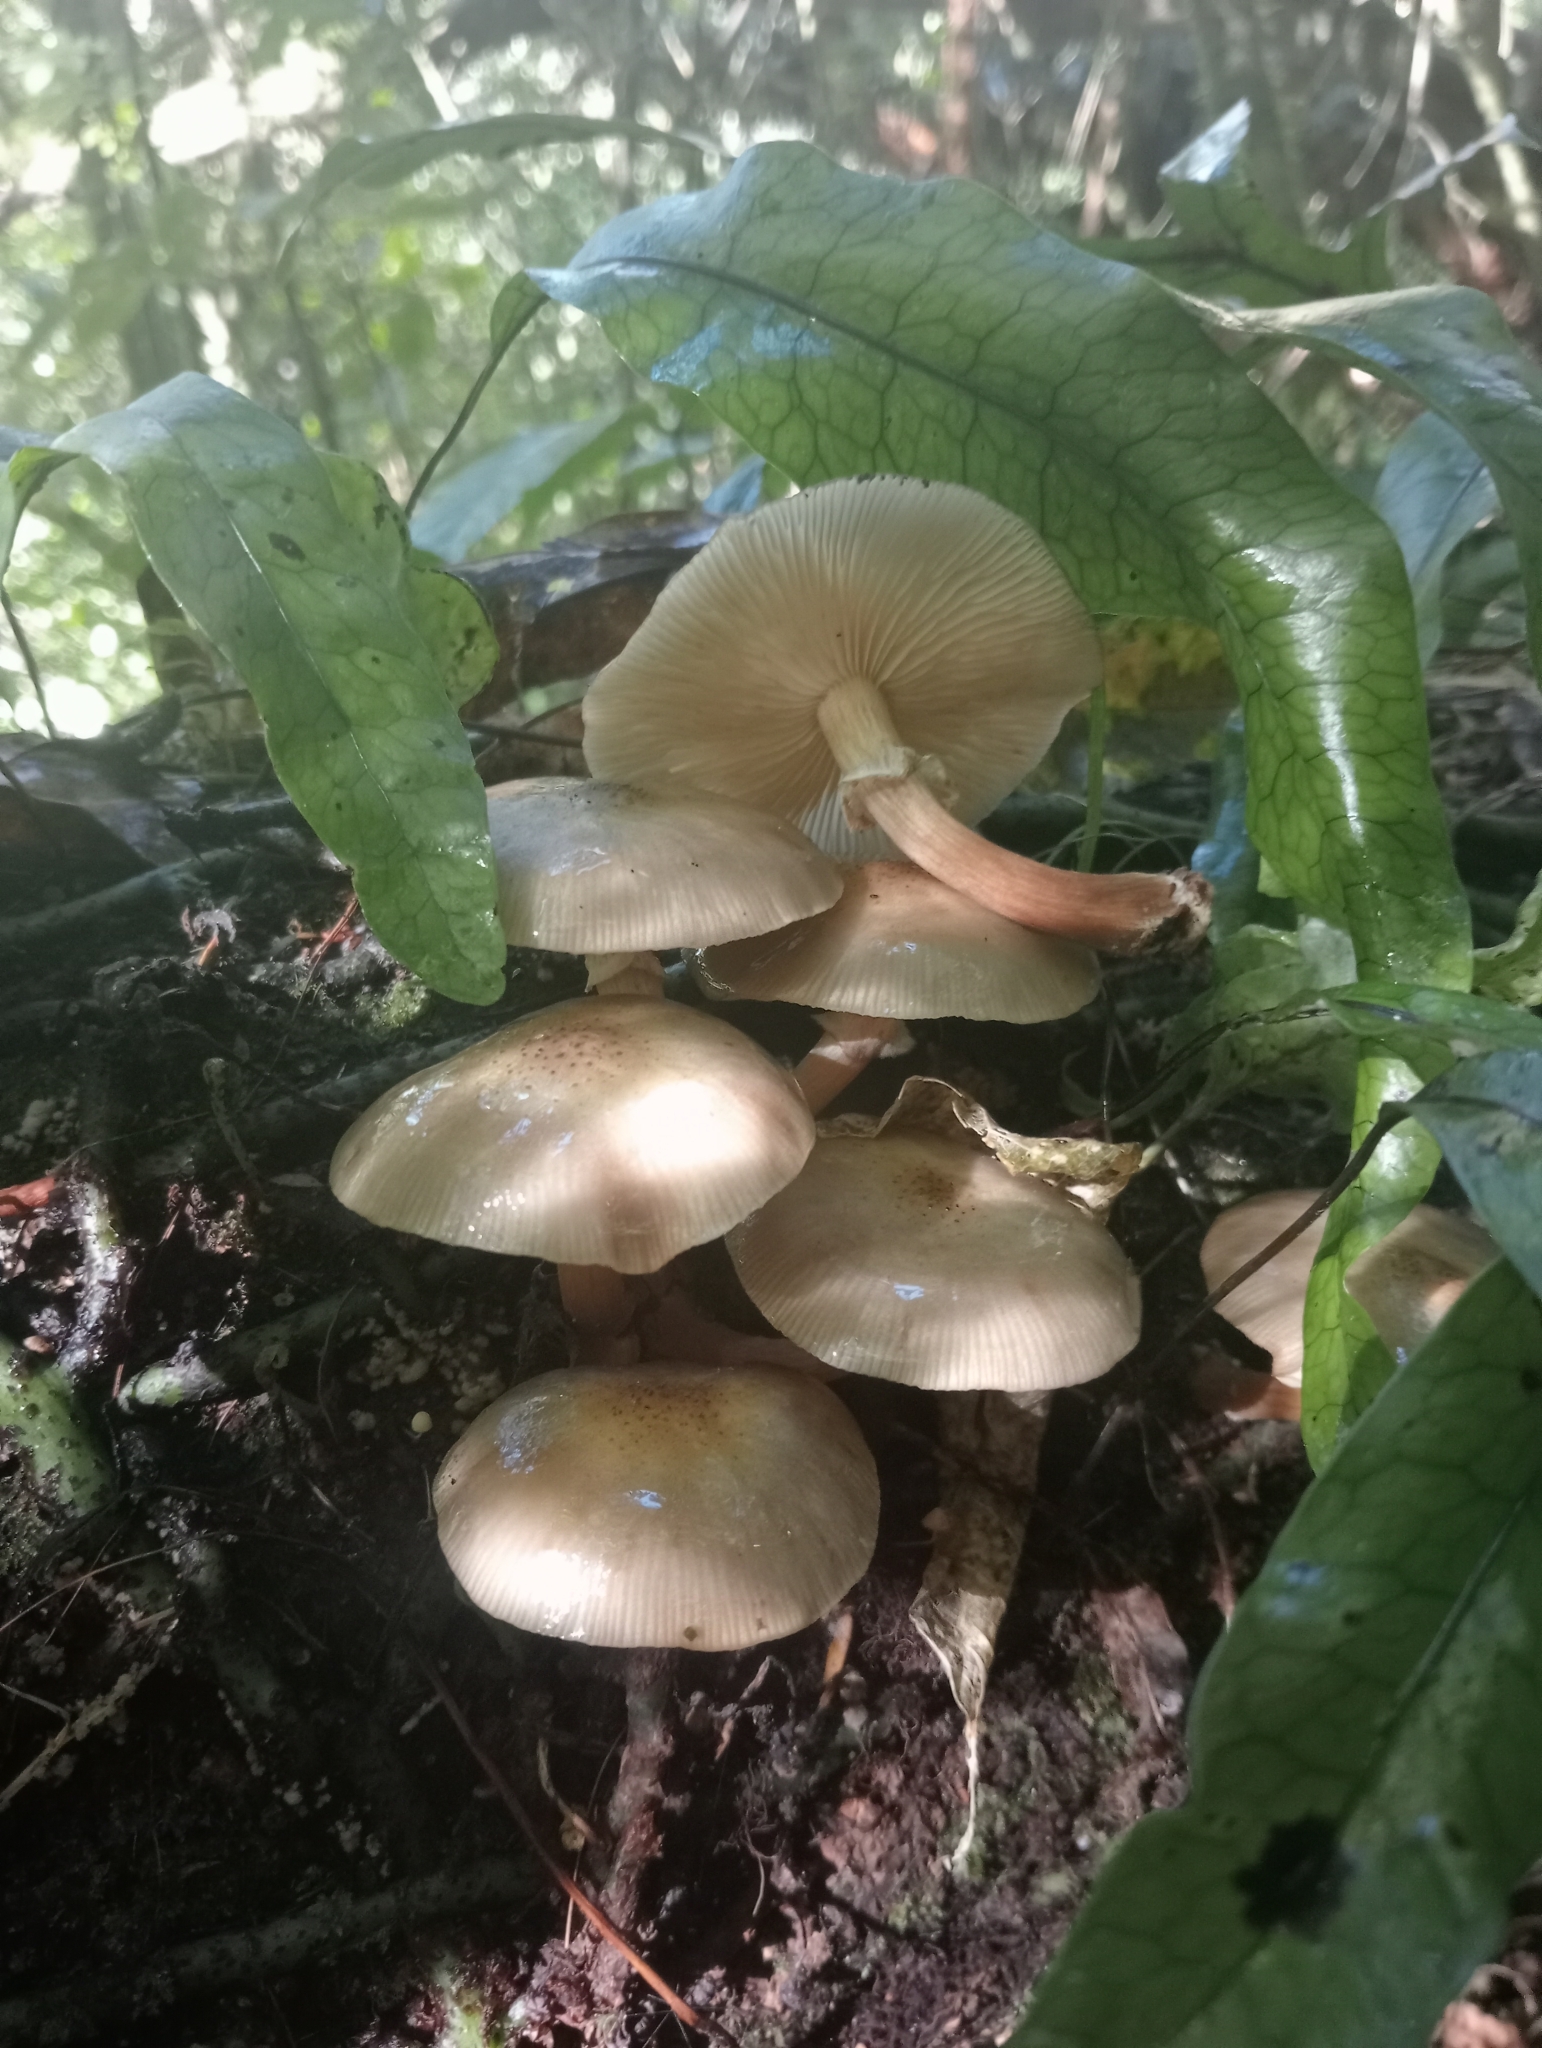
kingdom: Fungi
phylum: Basidiomycota
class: Agaricomycetes
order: Agaricales
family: Physalacriaceae
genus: Armillaria
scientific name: Armillaria novae-zelandiae
